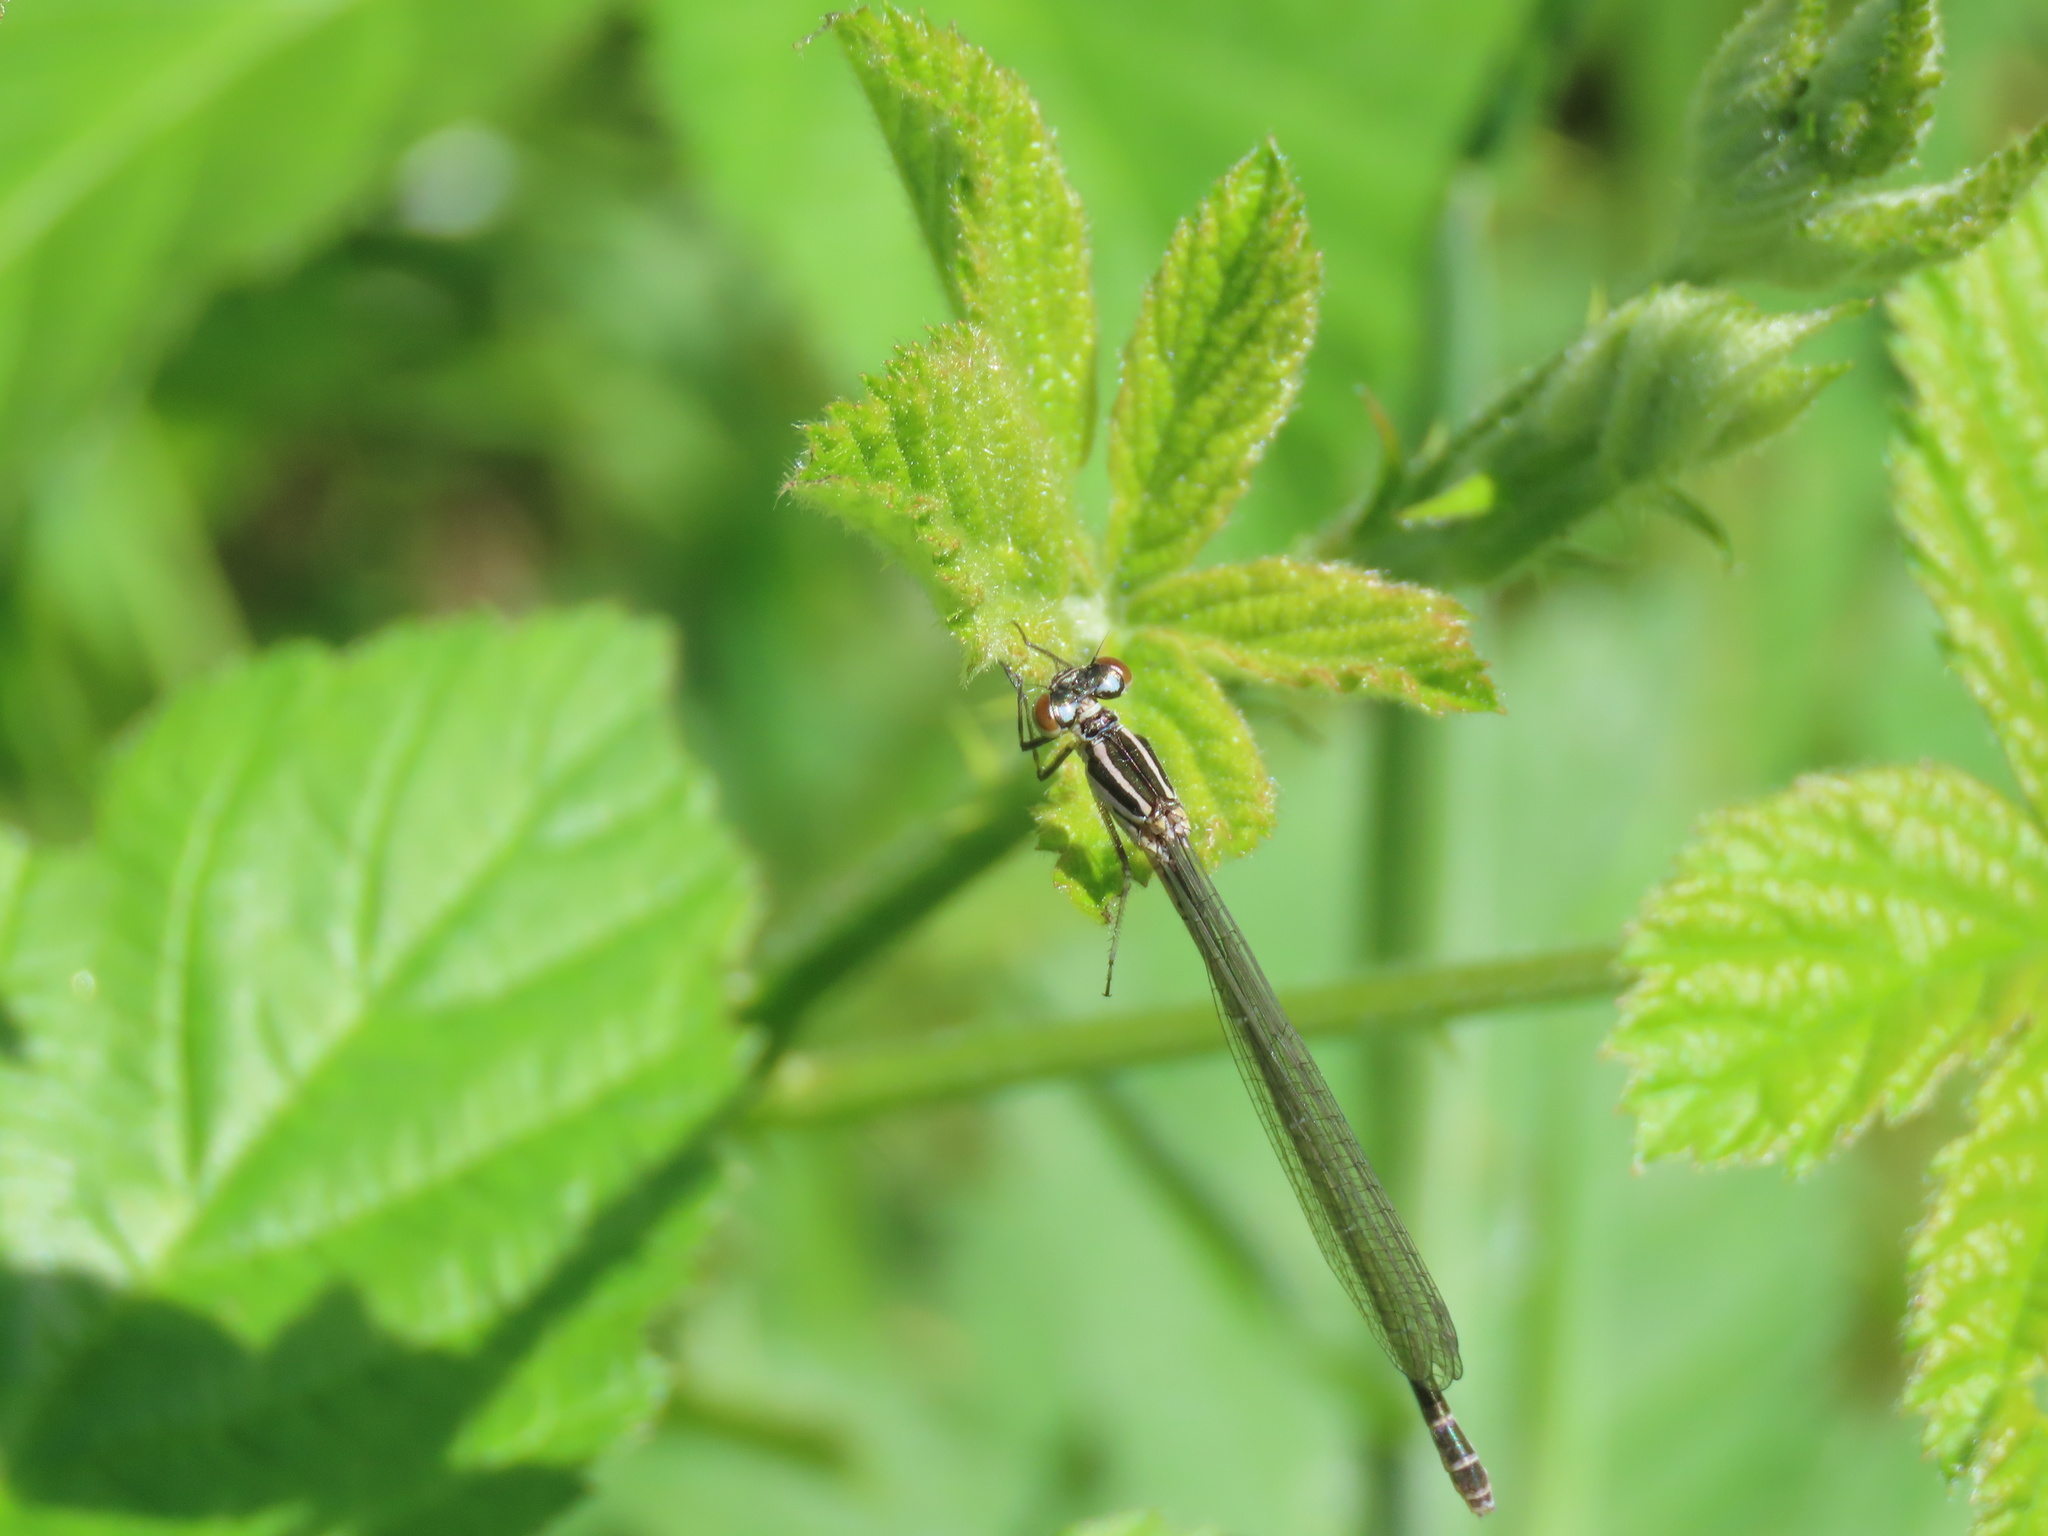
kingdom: Animalia
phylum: Arthropoda
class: Insecta
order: Odonata
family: Coenagrionidae
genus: Coenagrion
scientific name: Coenagrion puella
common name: Azure damselfly
